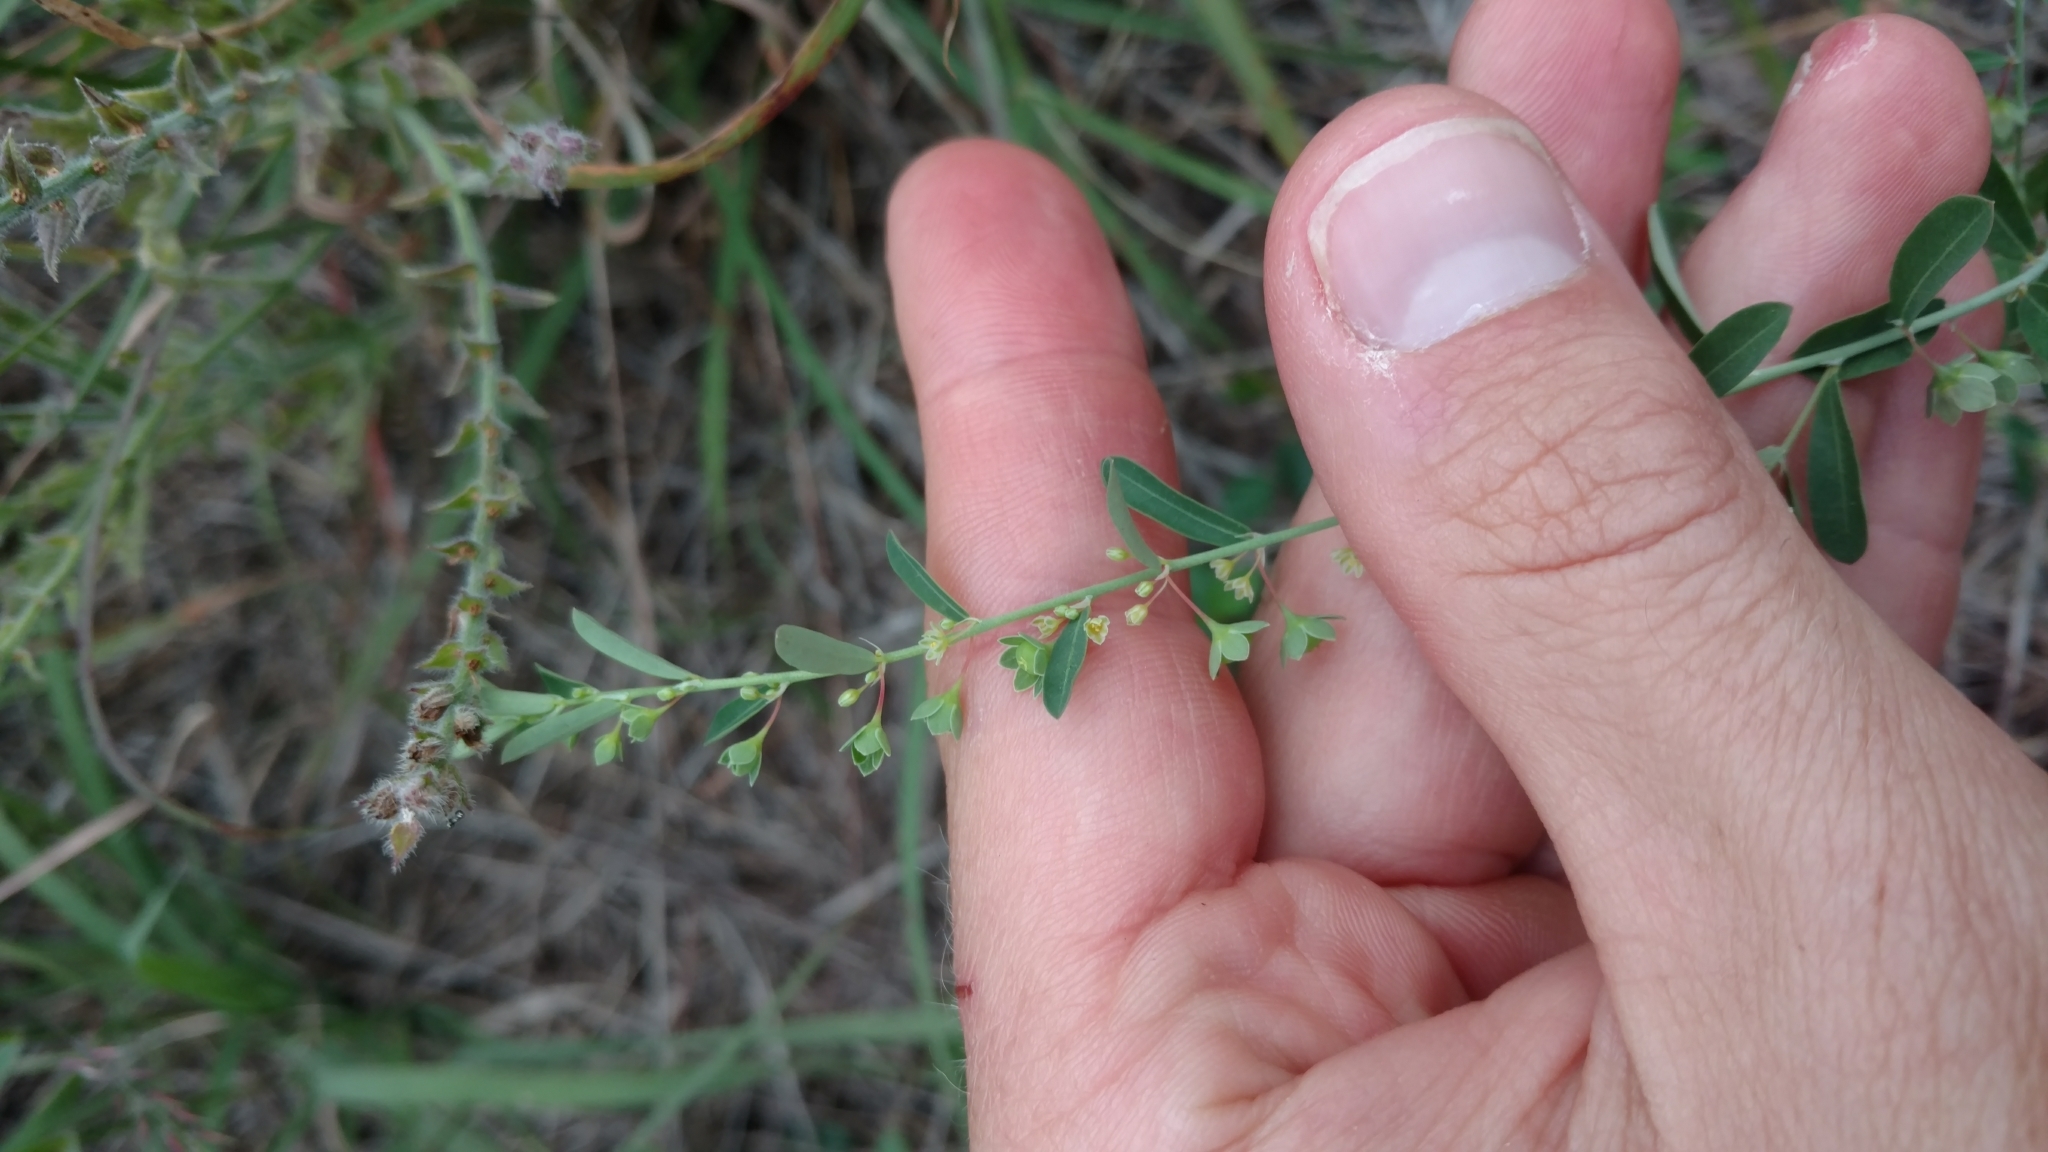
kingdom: Plantae
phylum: Tracheophyta
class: Magnoliopsida
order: Malpighiales
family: Phyllanthaceae
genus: Phyllanthus
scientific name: Phyllanthus polygonoides
